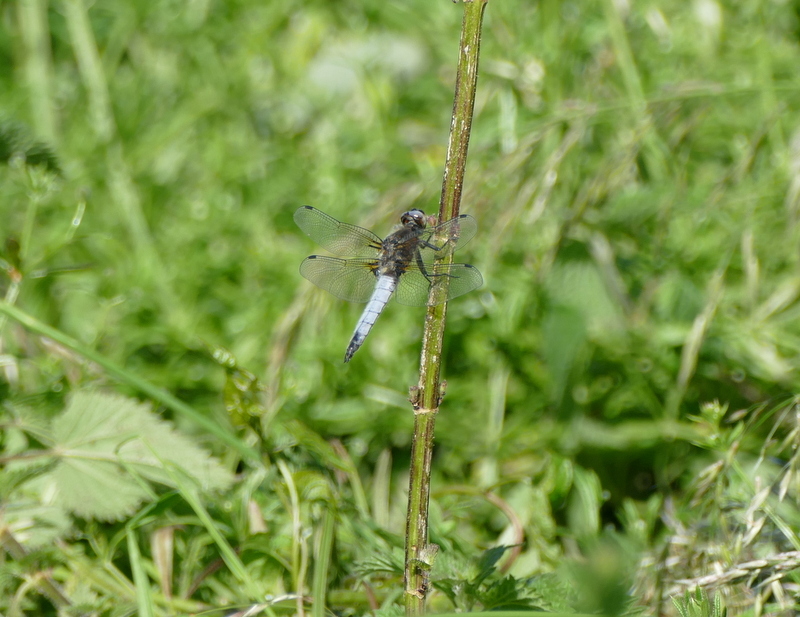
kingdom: Animalia
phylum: Arthropoda
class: Insecta
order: Odonata
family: Libellulidae
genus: Libellula
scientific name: Libellula fulva
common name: Blue chaser
